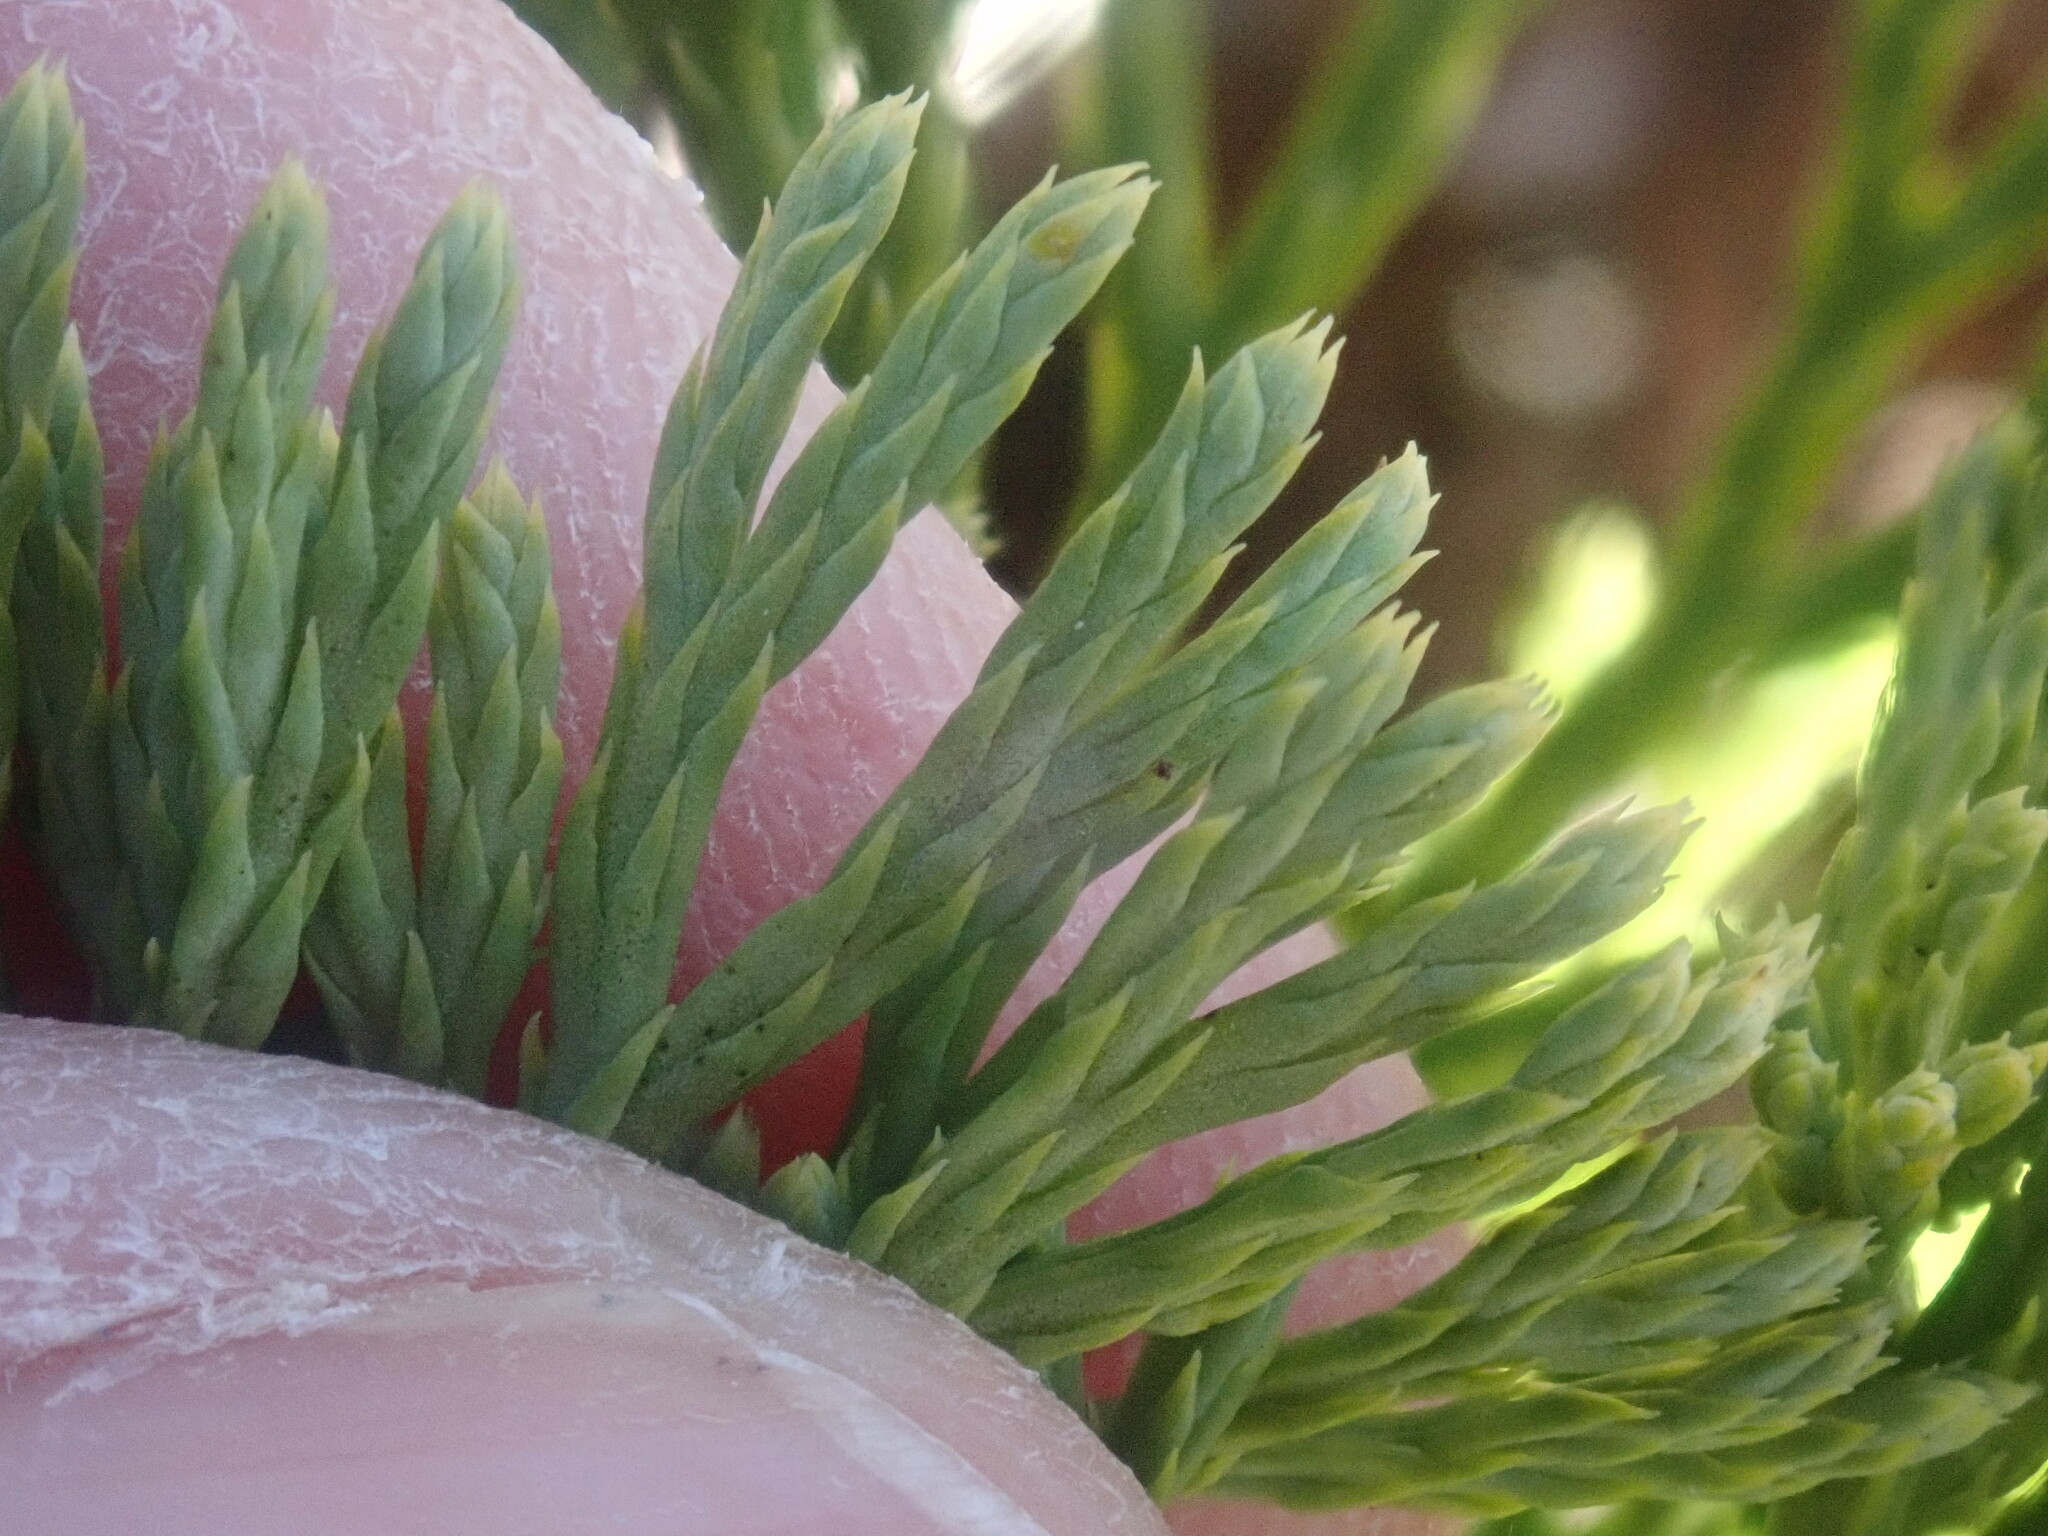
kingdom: Plantae
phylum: Tracheophyta
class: Lycopodiopsida
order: Lycopodiales
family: Lycopodiaceae
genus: Diphasiastrum
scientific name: Diphasiastrum tristachyum
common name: Blue ground-cedar
